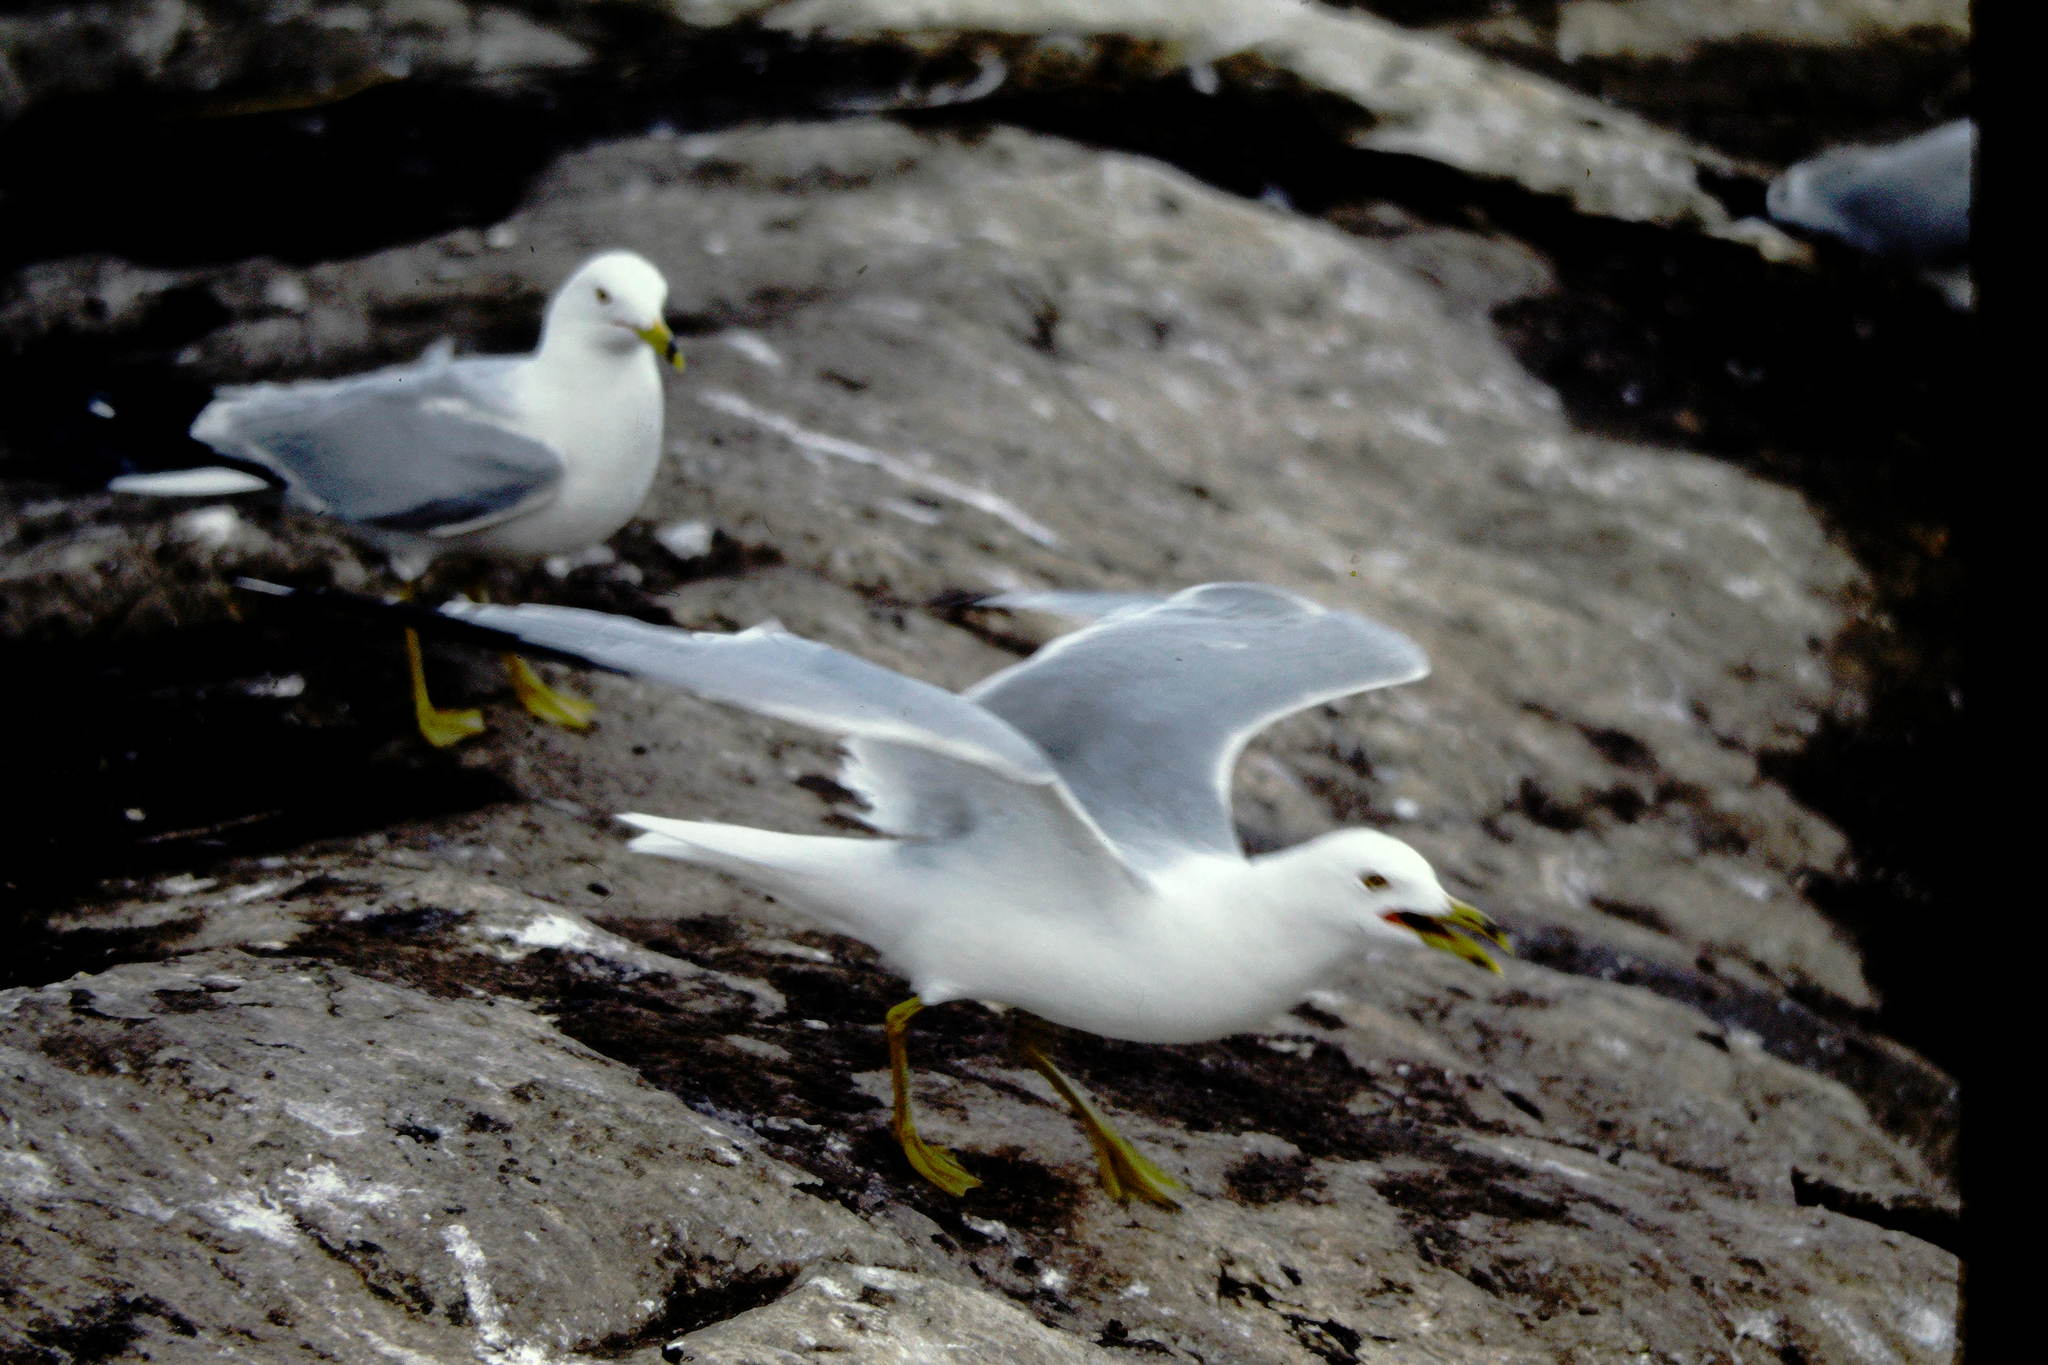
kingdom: Animalia
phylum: Chordata
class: Aves
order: Charadriiformes
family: Laridae
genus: Larus
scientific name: Larus delawarensis
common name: Ring-billed gull
